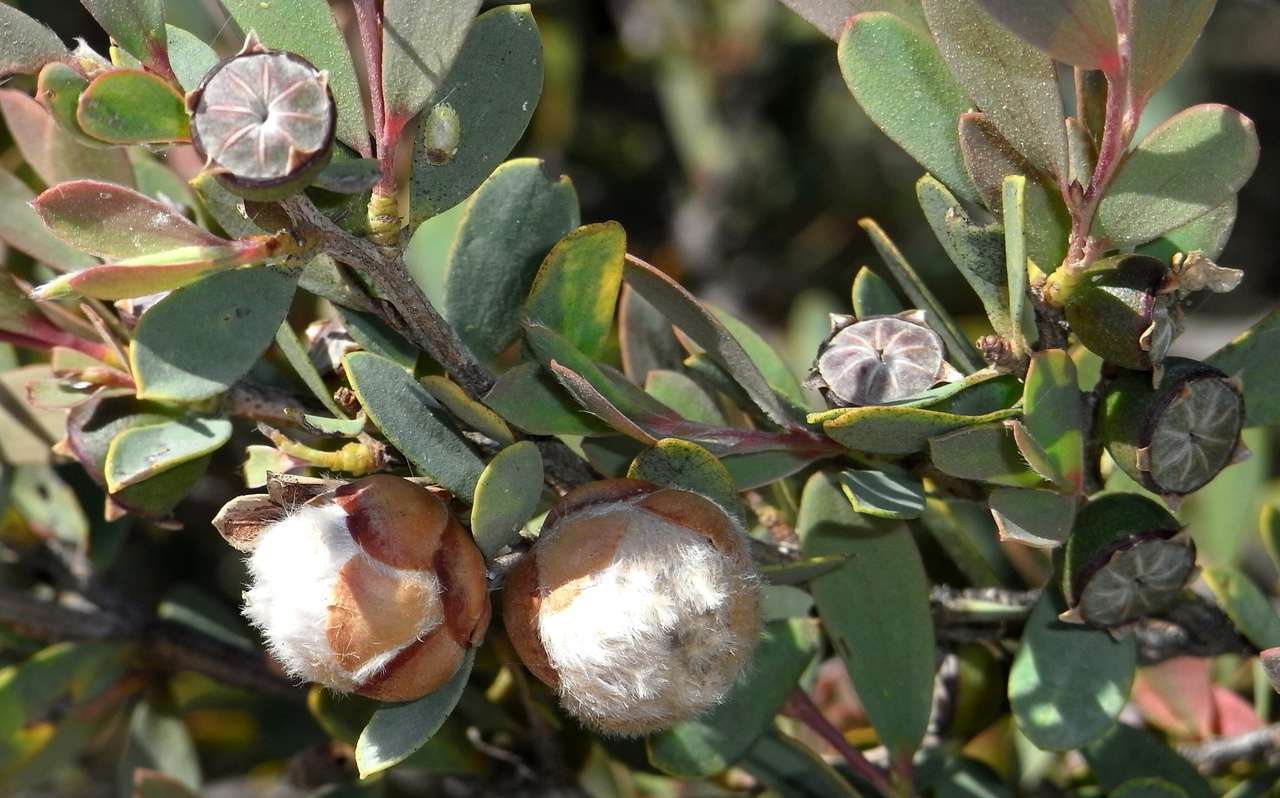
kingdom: Animalia
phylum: Arthropoda
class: Insecta
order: Diptera
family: Cecidomyiidae
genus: Dasineura
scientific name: Dasineura
